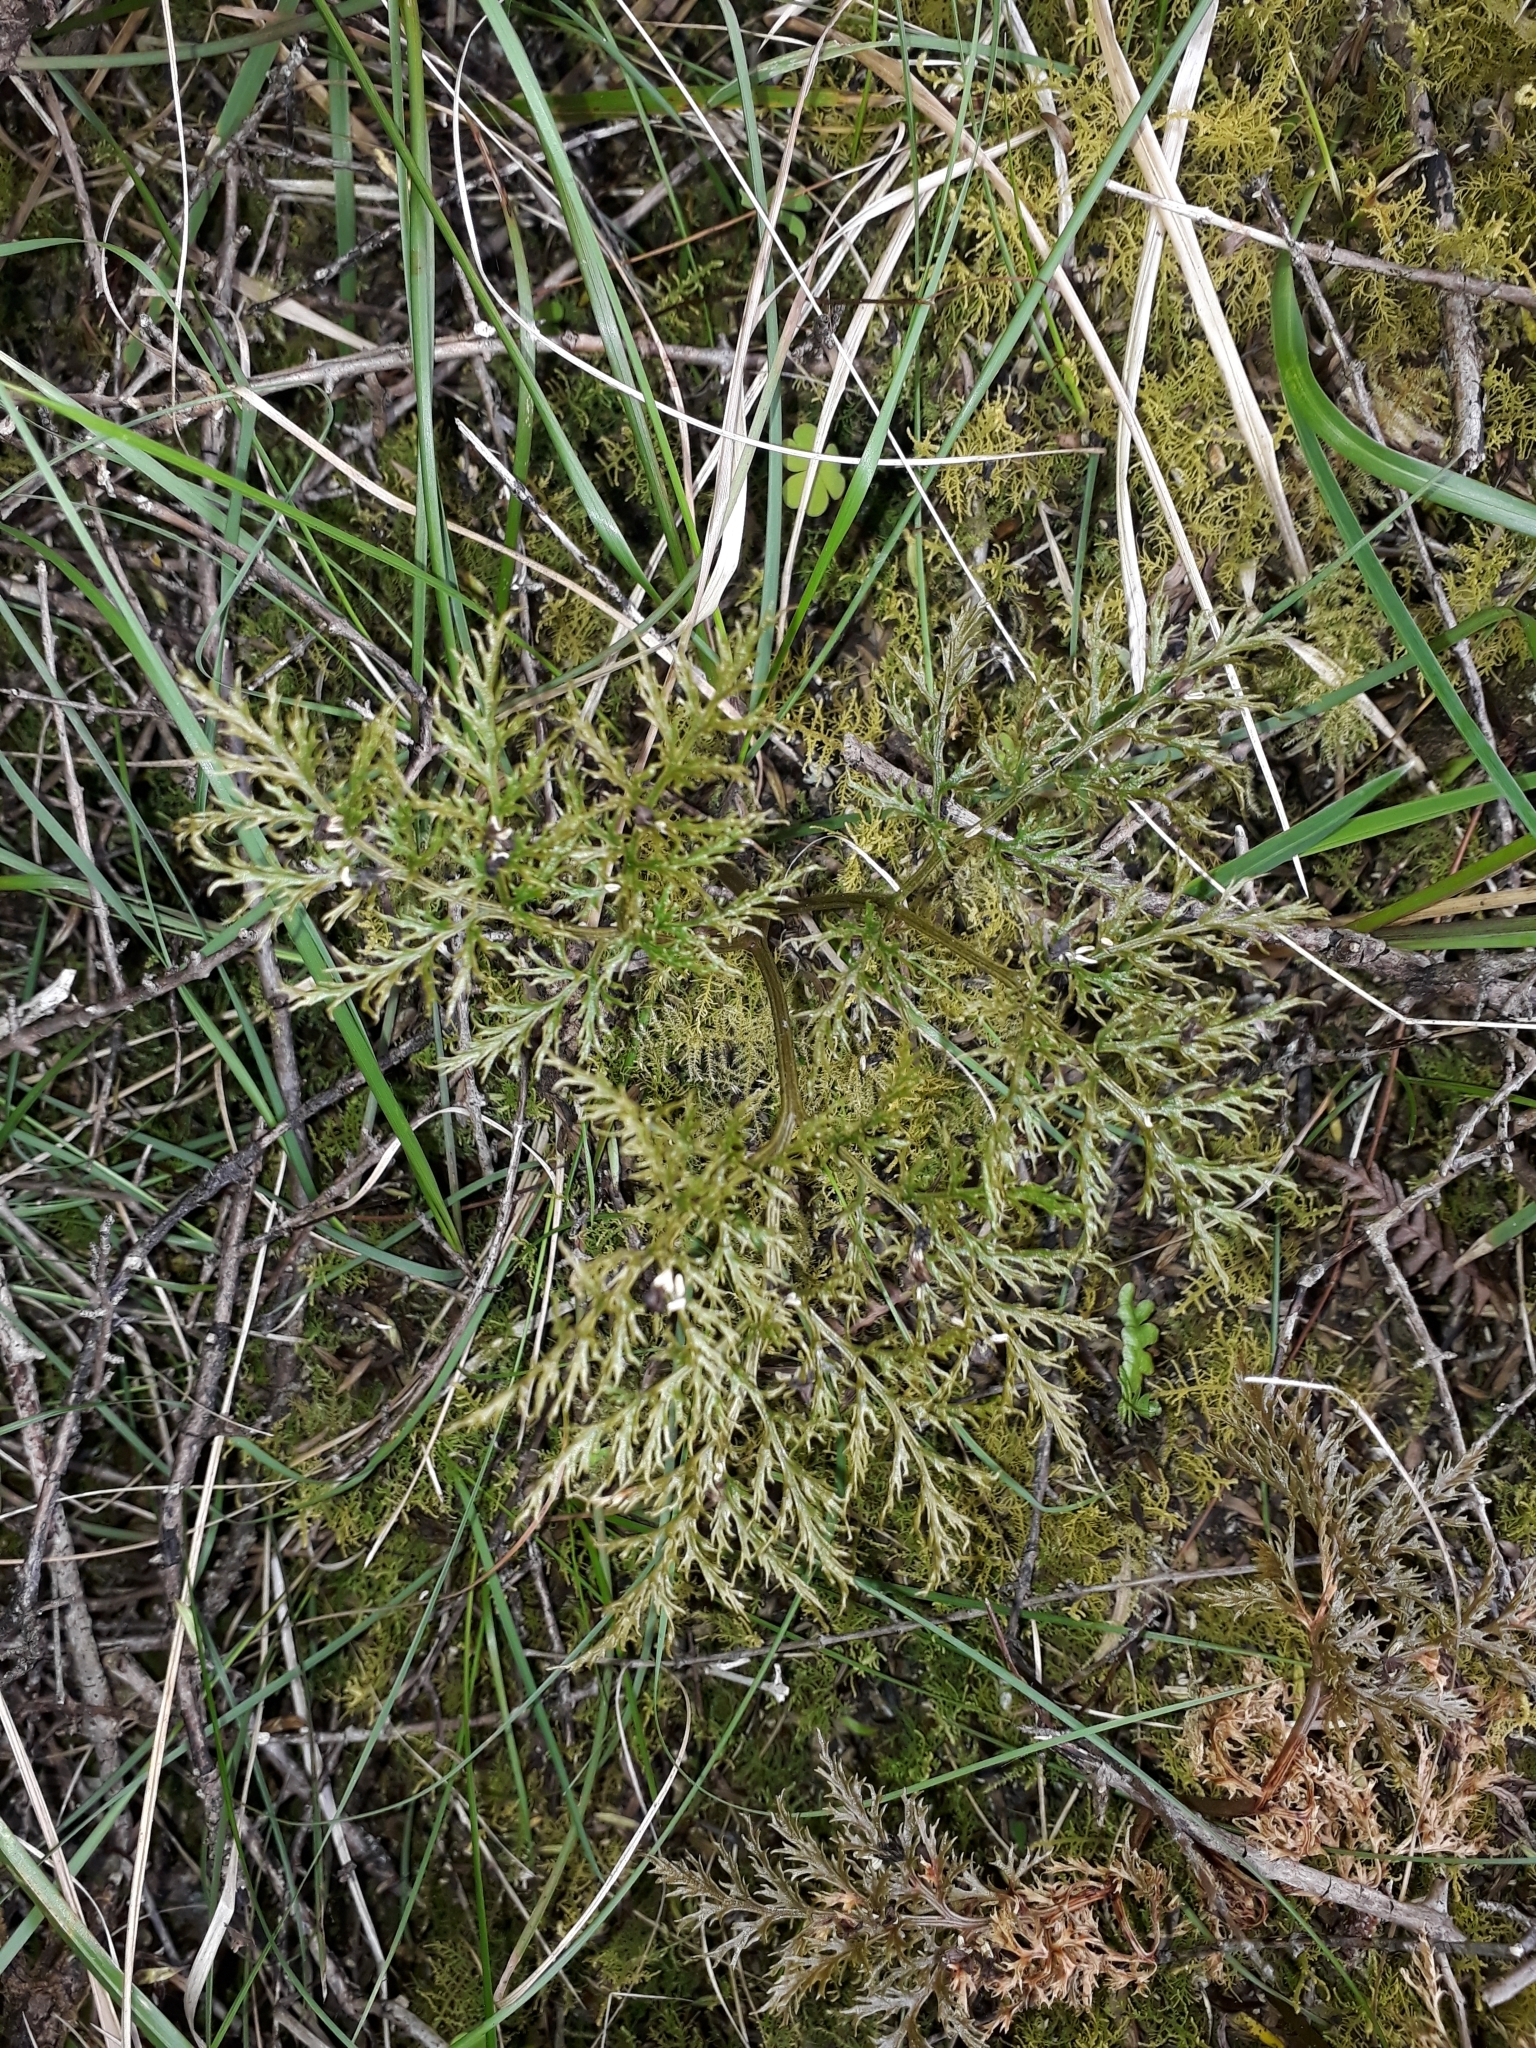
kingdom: Plantae
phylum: Tracheophyta
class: Polypodiopsida
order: Ophioglossales
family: Ophioglossaceae
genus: Sceptridium
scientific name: Sceptridium biforme
